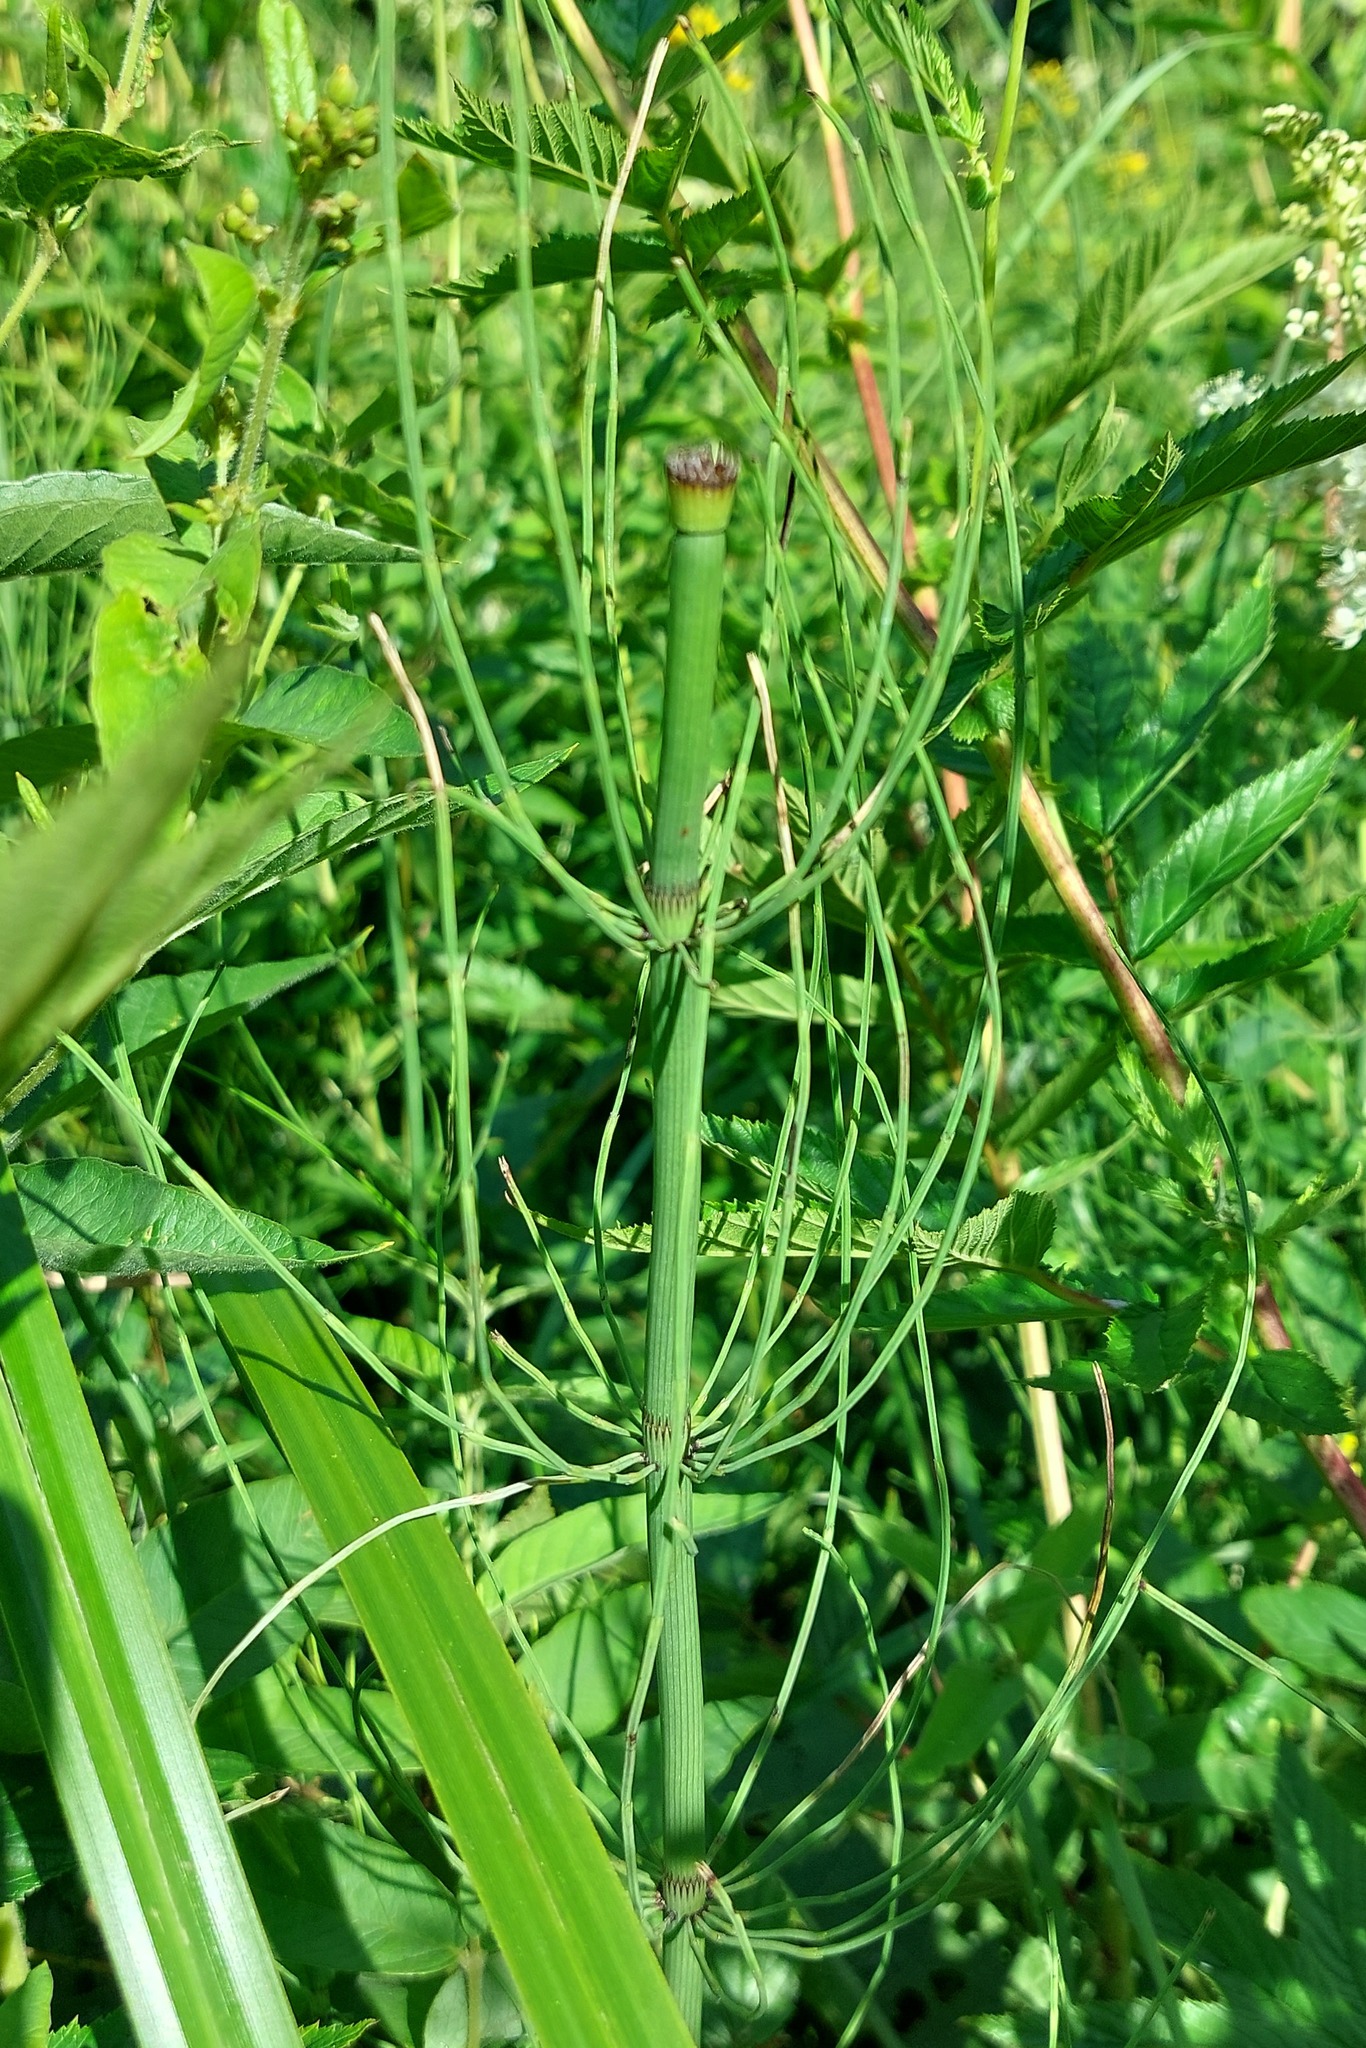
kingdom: Plantae
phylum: Tracheophyta
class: Polypodiopsida
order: Equisetales
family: Equisetaceae
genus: Equisetum
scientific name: Equisetum fluviatile
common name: Water horsetail
